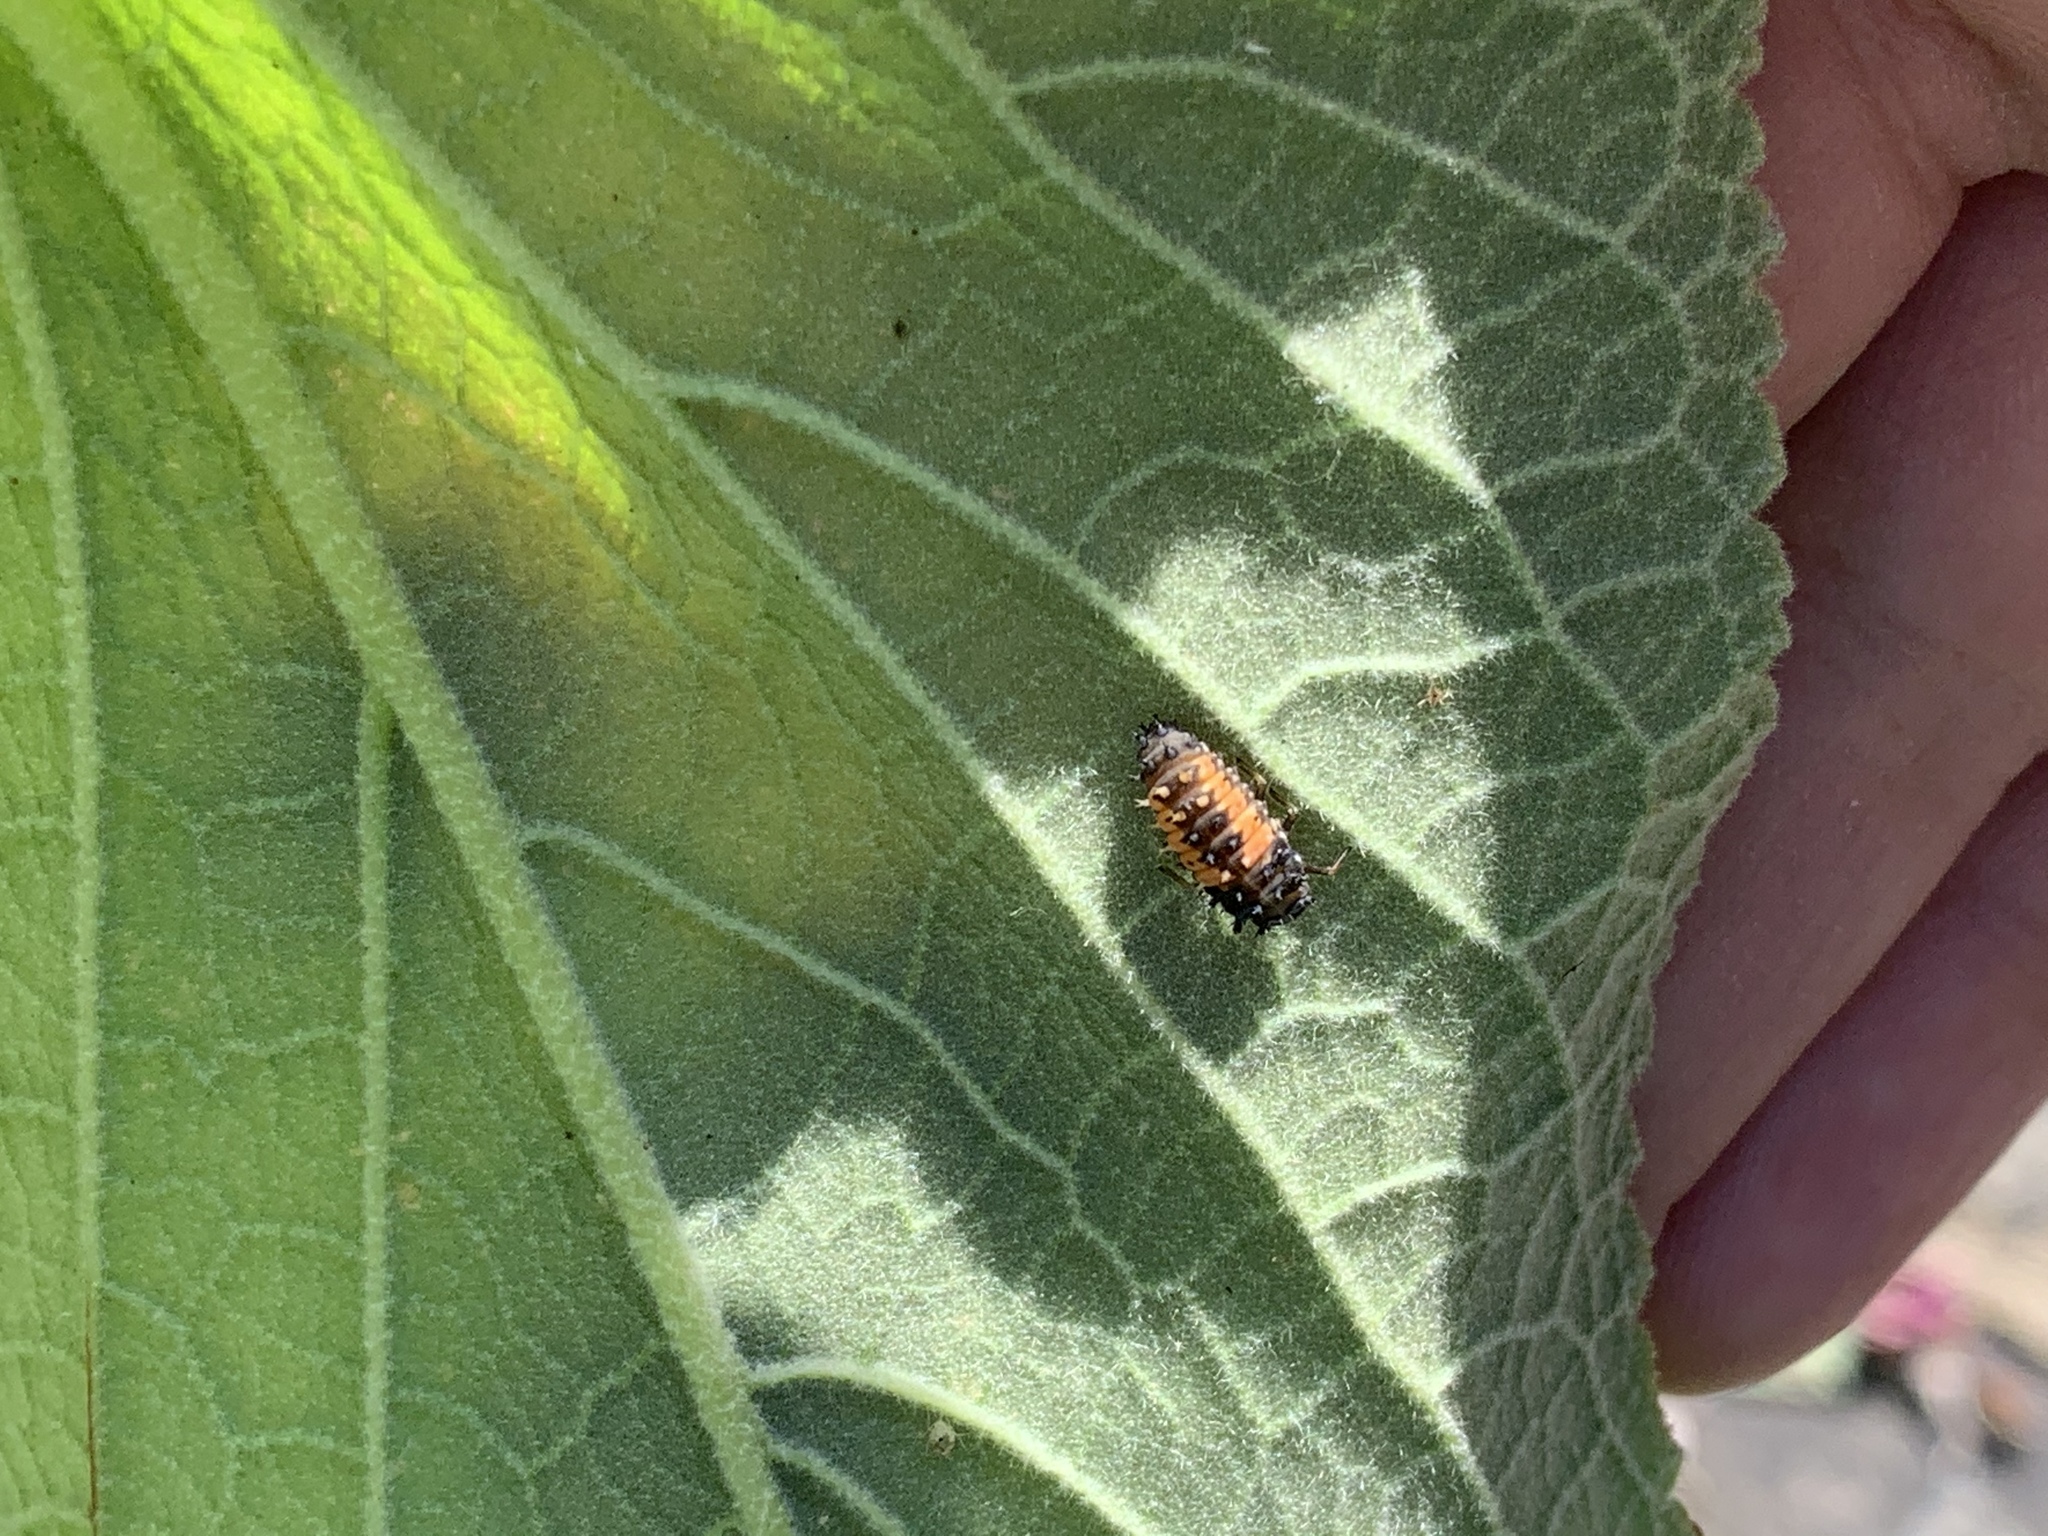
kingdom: Animalia
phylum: Arthropoda
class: Insecta
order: Coleoptera
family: Coccinellidae
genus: Harmonia
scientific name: Harmonia axyridis
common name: Harlequin ladybird
